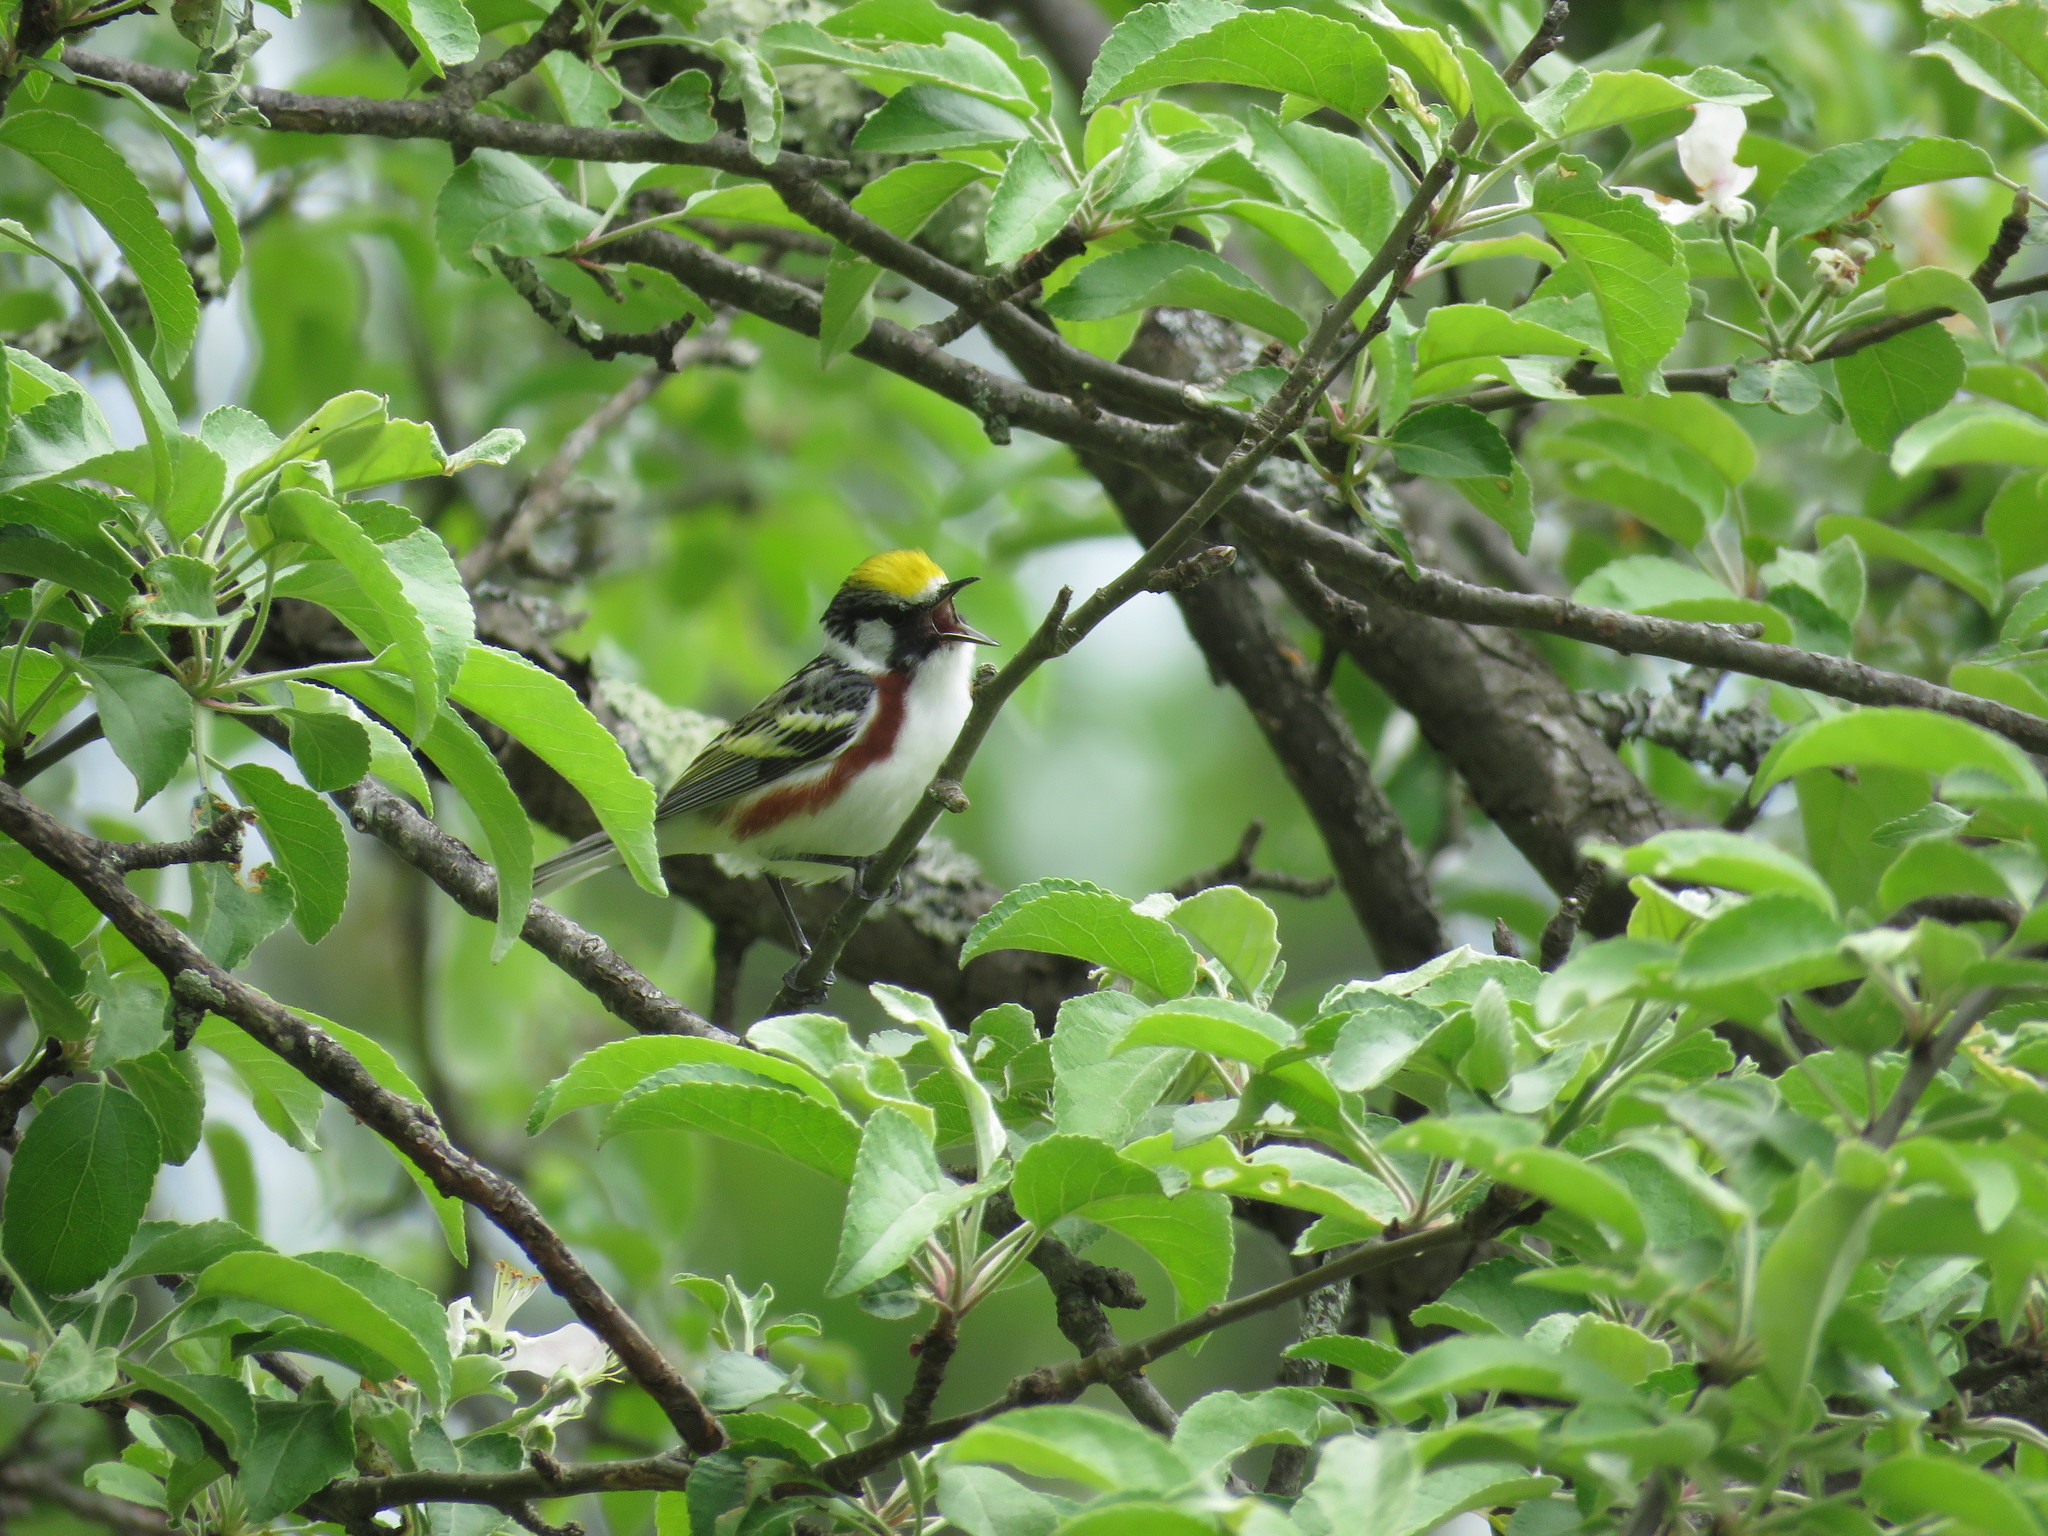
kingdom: Animalia
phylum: Chordata
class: Aves
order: Passeriformes
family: Parulidae
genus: Setophaga
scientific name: Setophaga pensylvanica
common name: Chestnut-sided warbler
